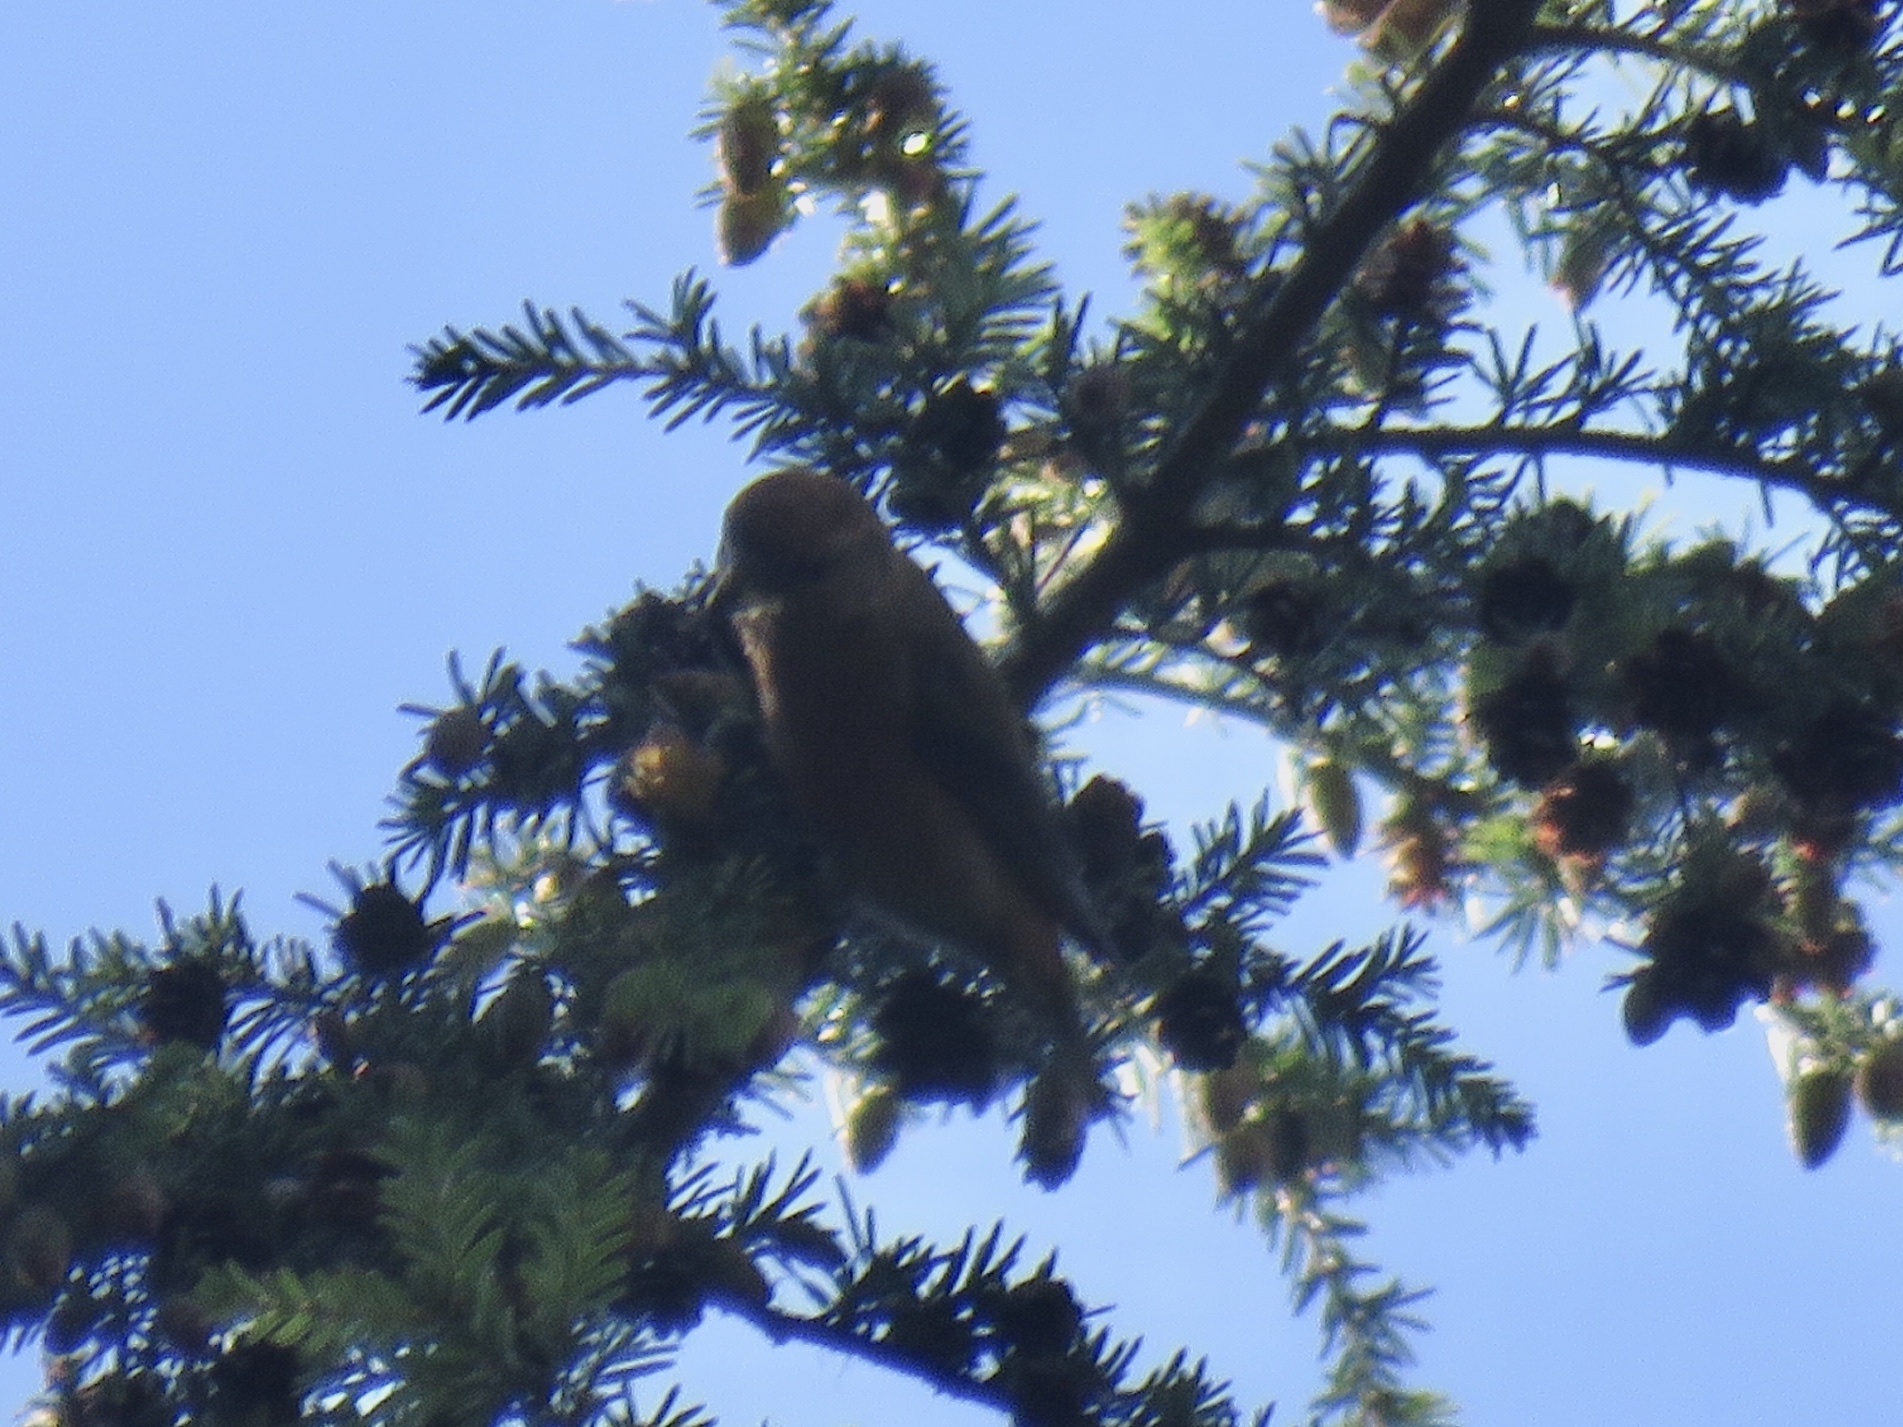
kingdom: Animalia
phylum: Chordata
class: Aves
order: Passeriformes
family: Fringillidae
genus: Loxia
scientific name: Loxia curvirostra
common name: Red crossbill
